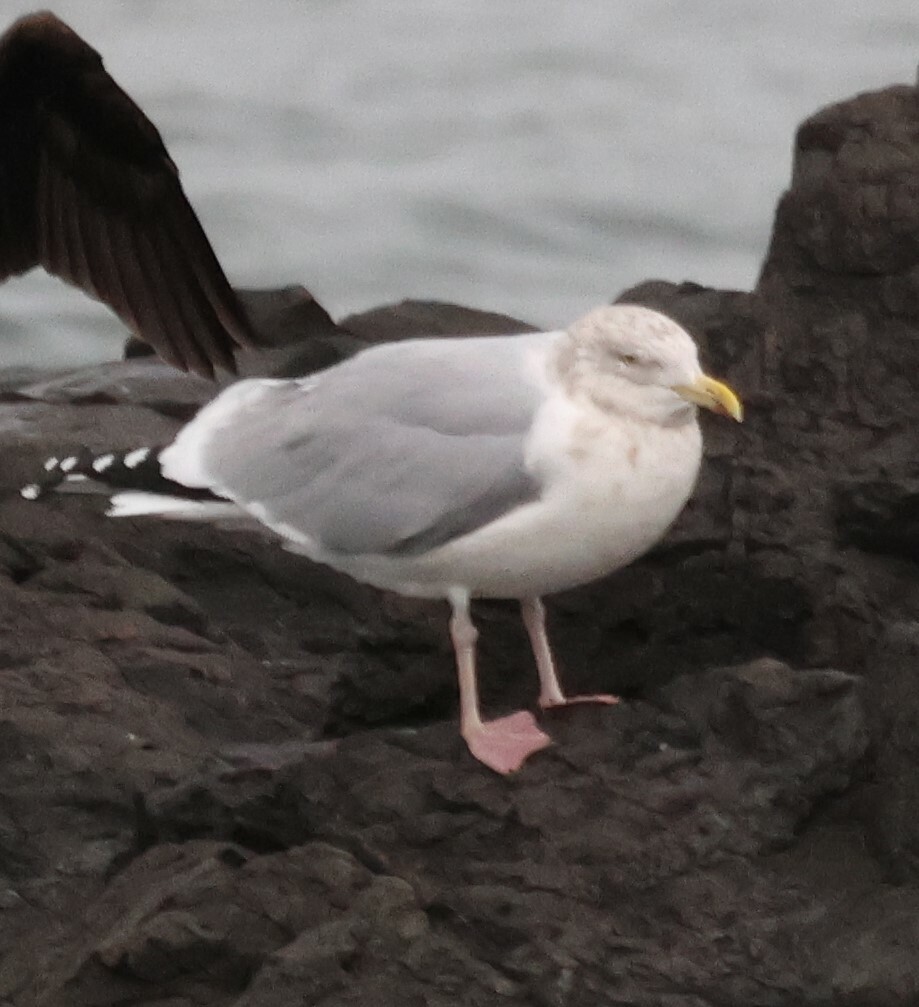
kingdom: Animalia
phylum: Chordata
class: Aves
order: Charadriiformes
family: Laridae
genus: Larus
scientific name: Larus argentatus
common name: Herring gull
